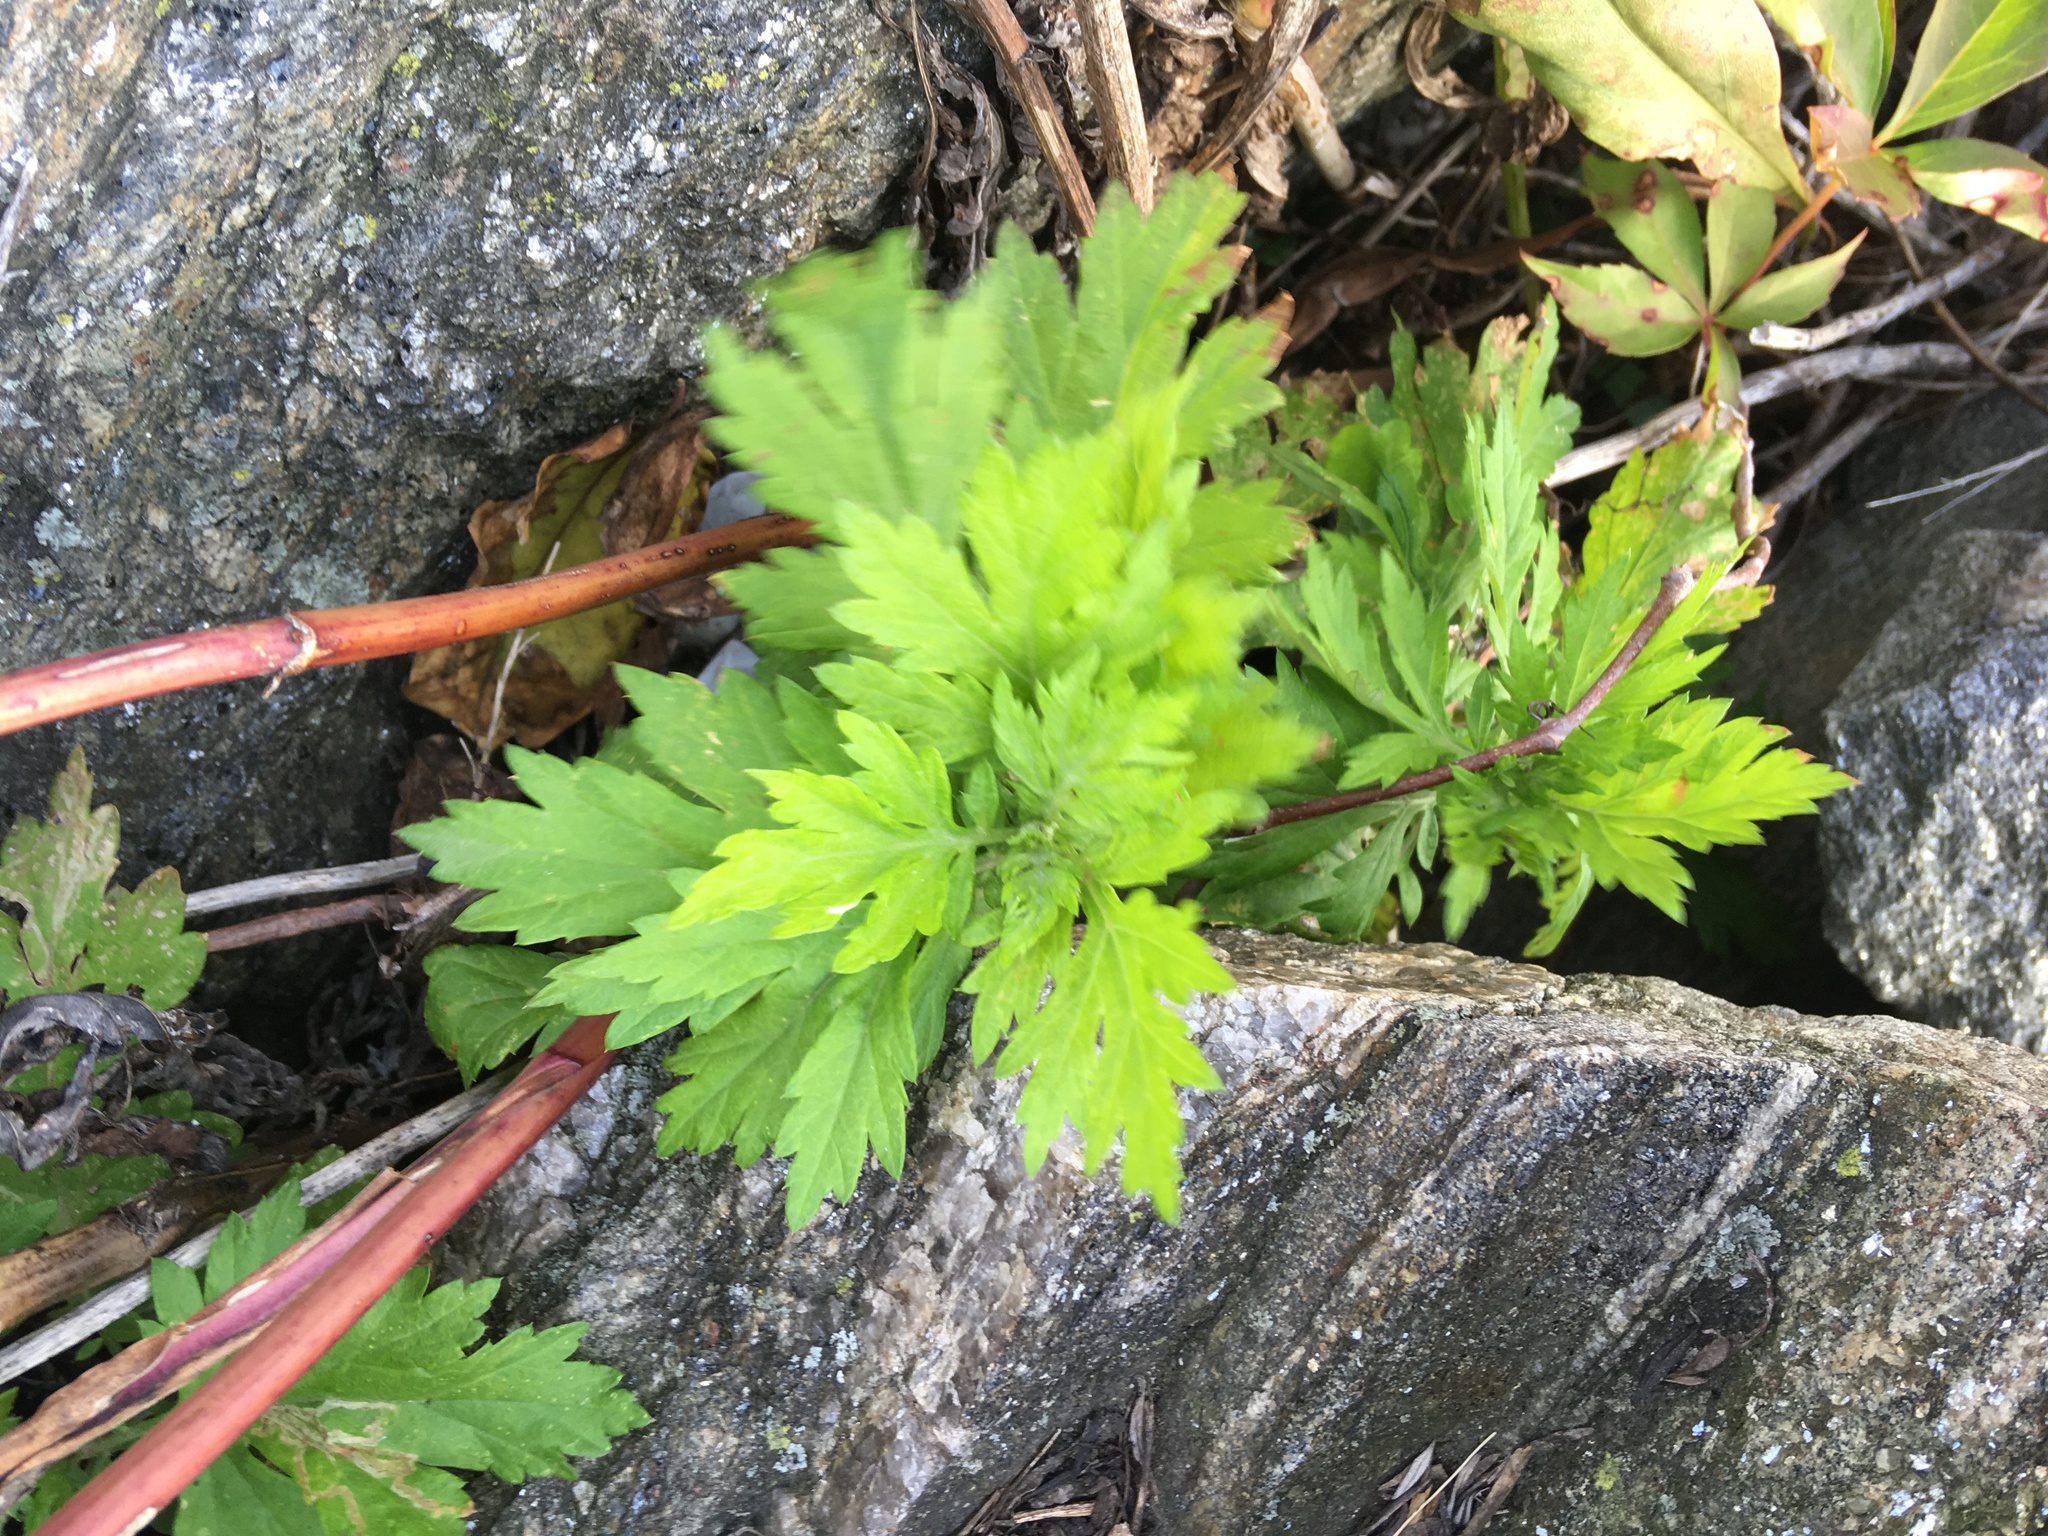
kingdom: Plantae
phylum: Tracheophyta
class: Magnoliopsida
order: Asterales
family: Asteraceae
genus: Artemisia
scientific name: Artemisia vulgaris
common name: Mugwort
